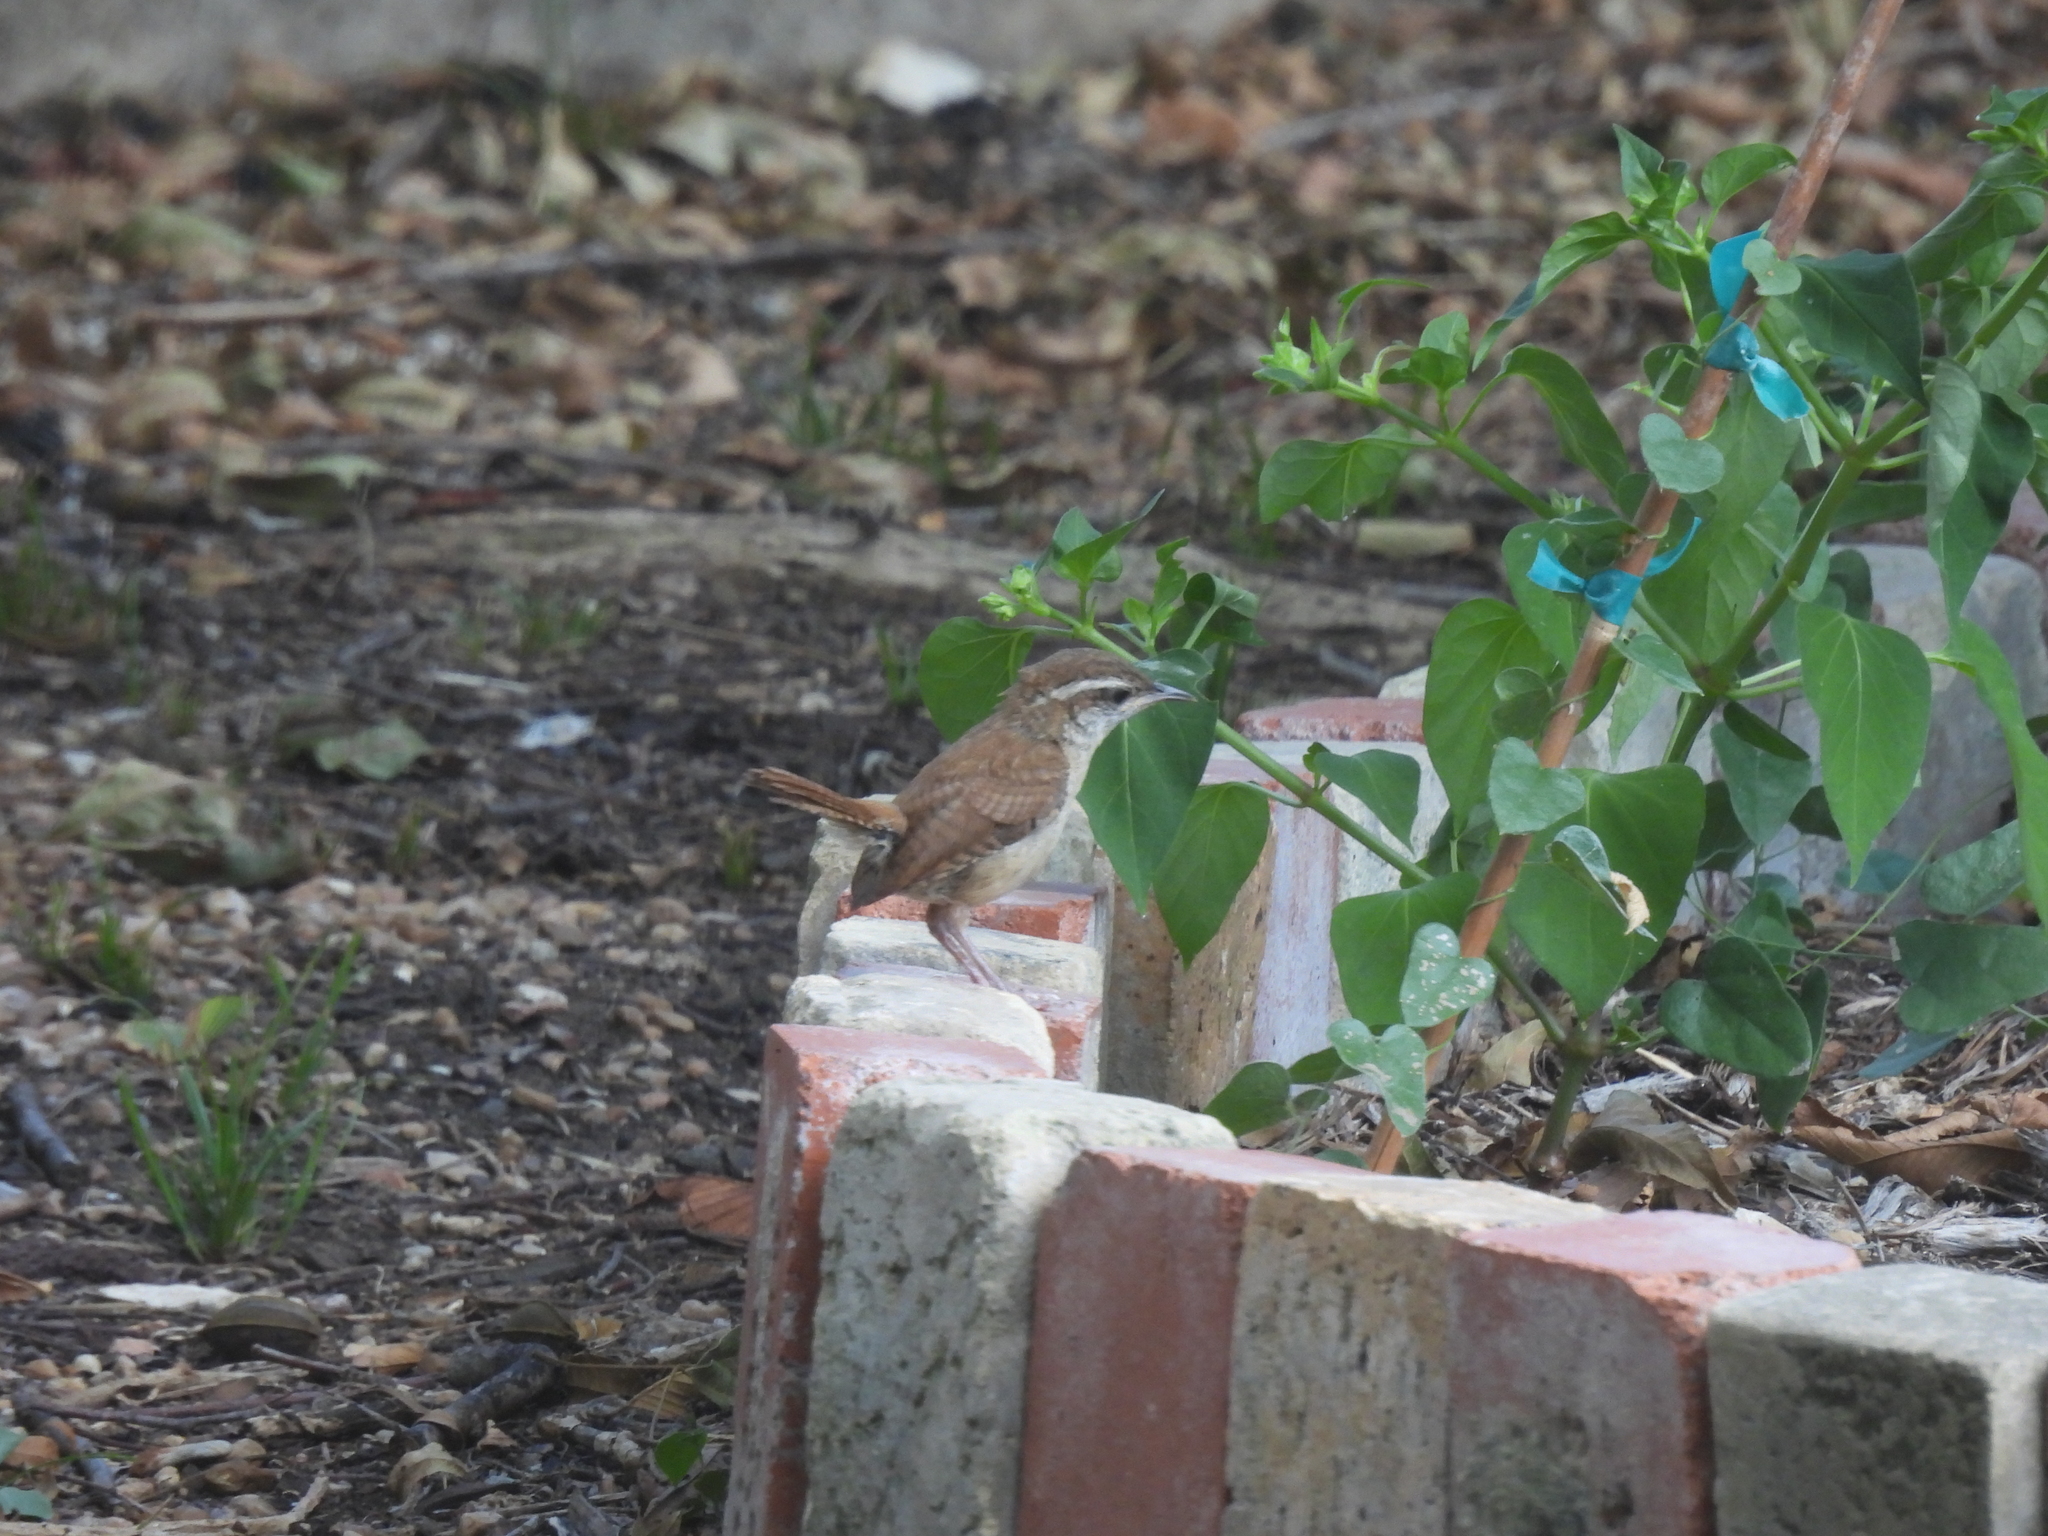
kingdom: Animalia
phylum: Chordata
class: Aves
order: Passeriformes
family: Troglodytidae
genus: Thryothorus
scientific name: Thryothorus ludovicianus
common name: Carolina wren
